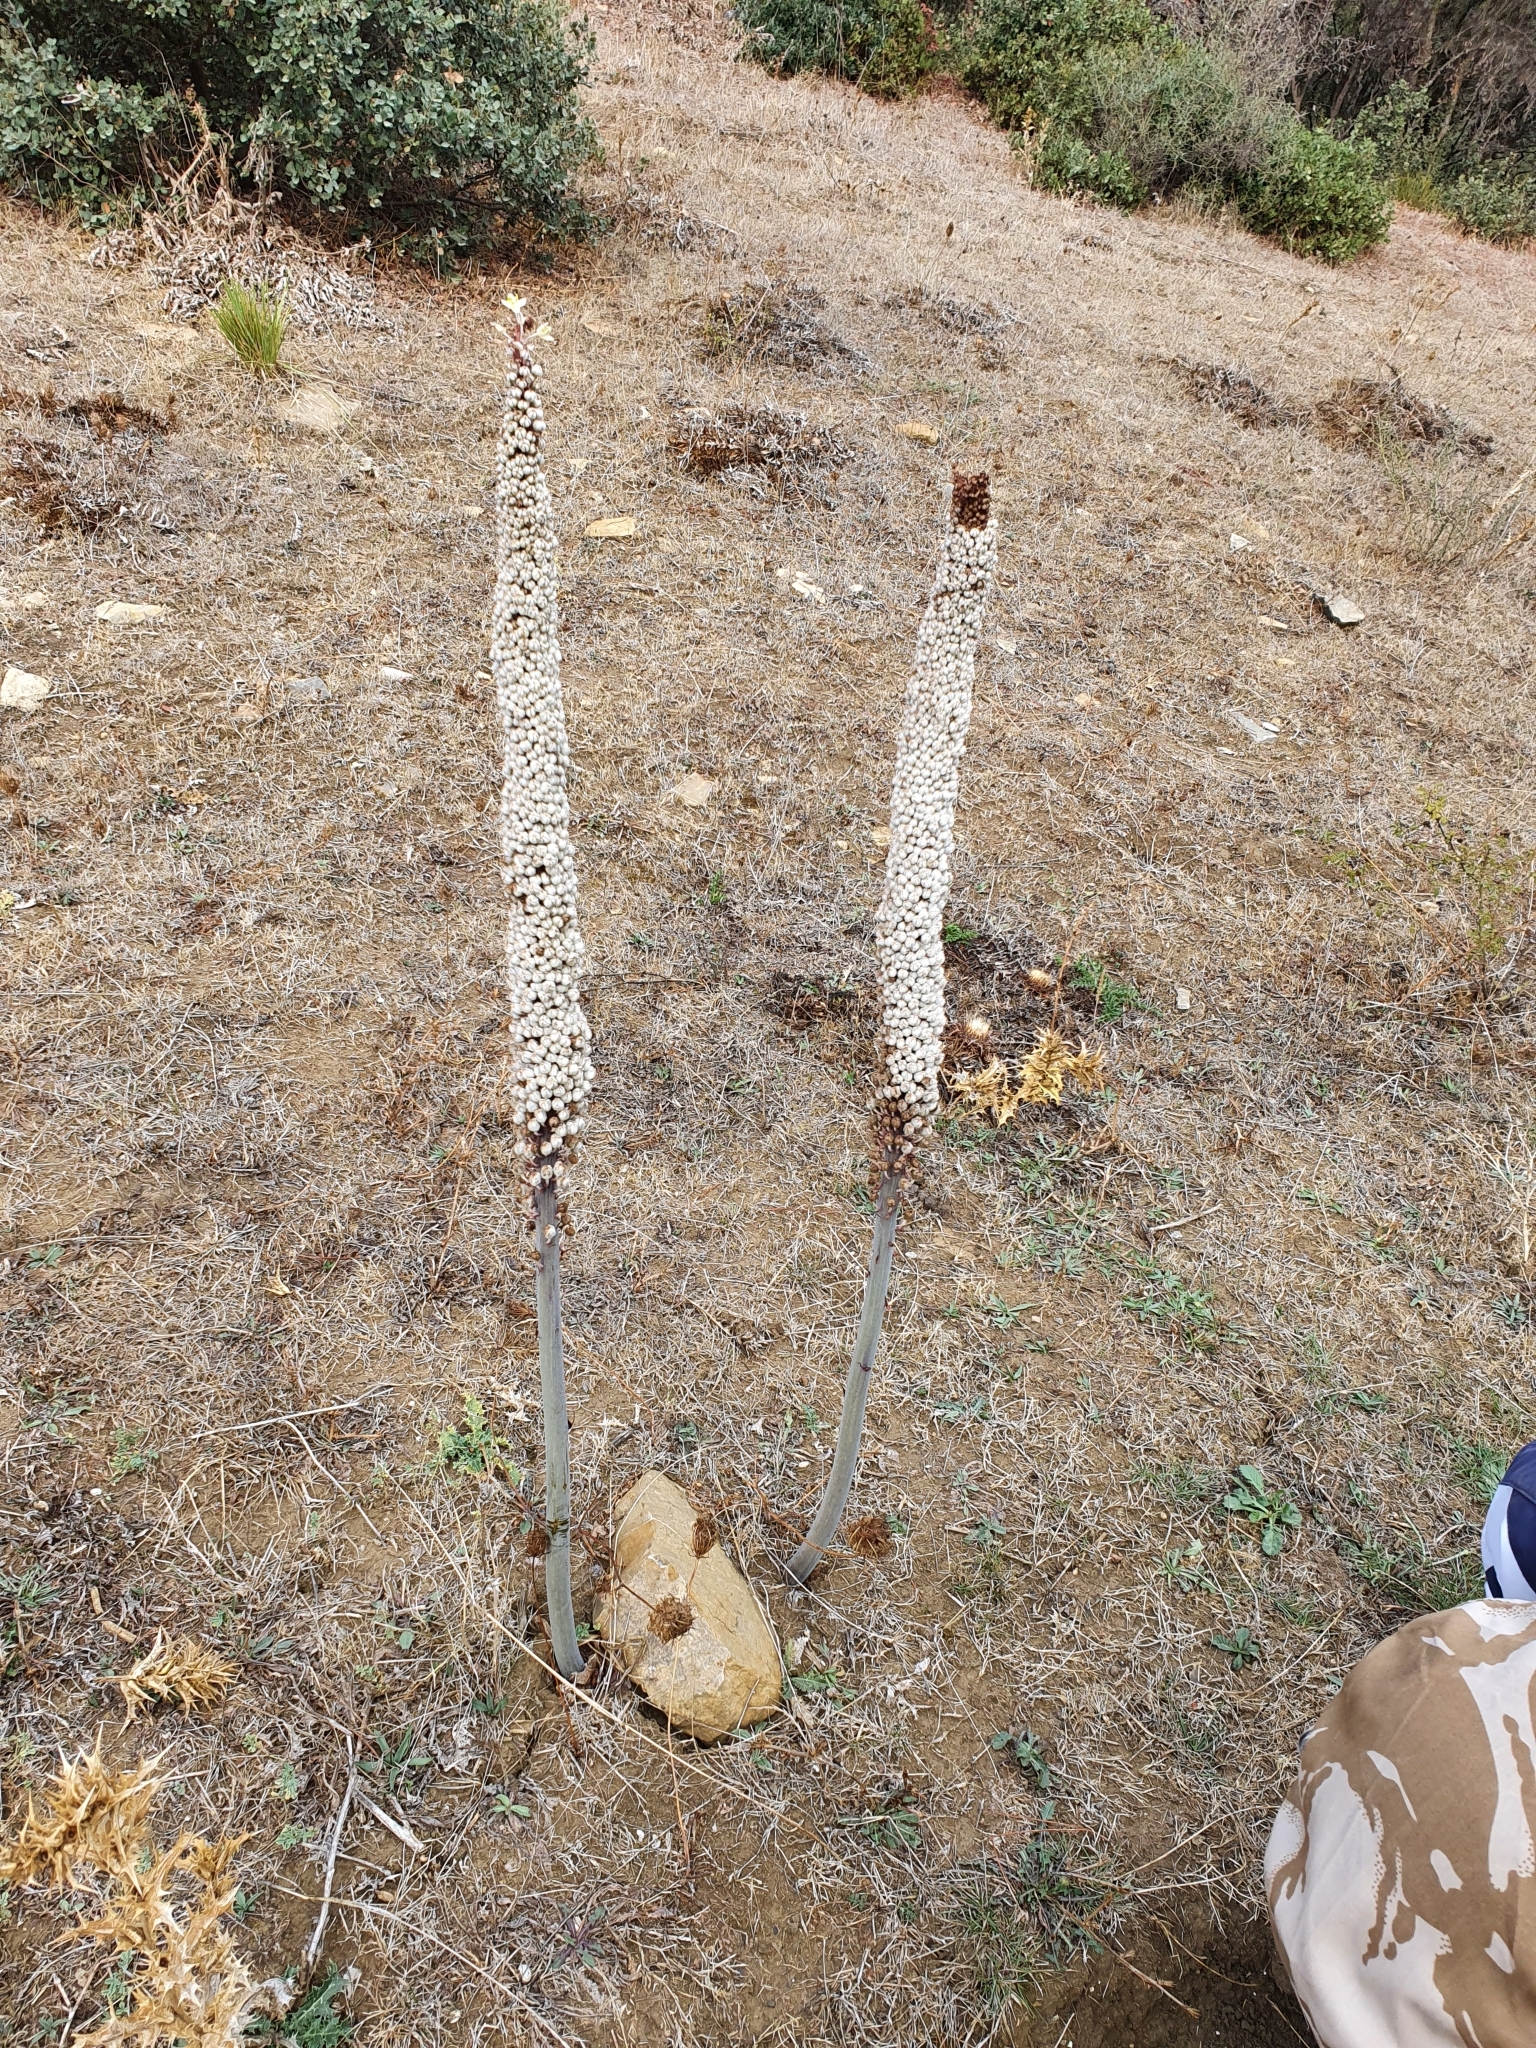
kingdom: Plantae
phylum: Tracheophyta
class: Liliopsida
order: Asparagales
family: Asparagaceae
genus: Drimia
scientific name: Drimia numidica
